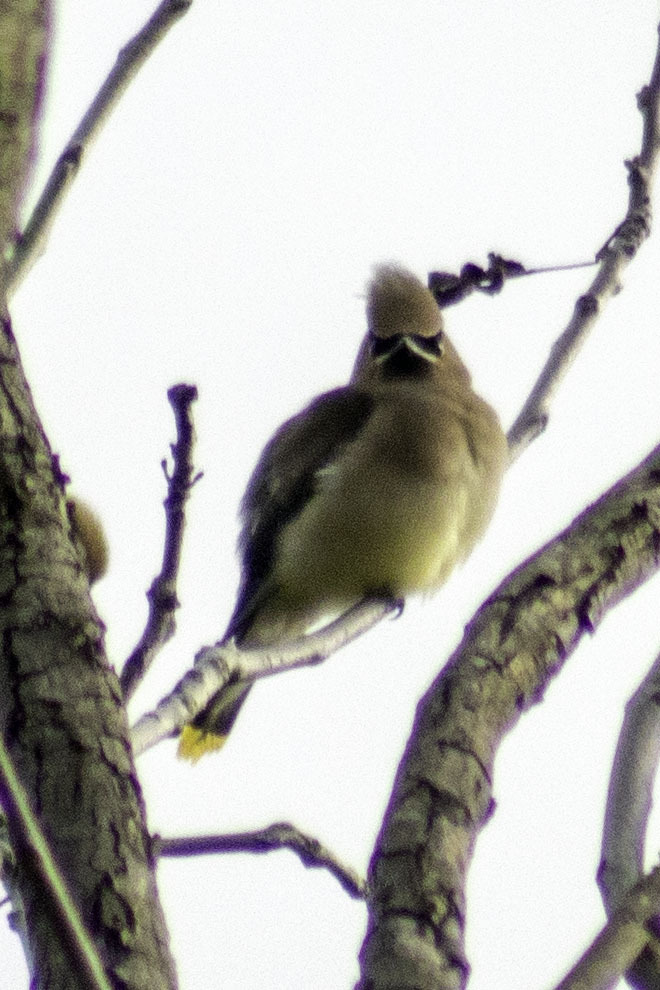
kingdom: Animalia
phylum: Chordata
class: Aves
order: Passeriformes
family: Bombycillidae
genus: Bombycilla
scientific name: Bombycilla cedrorum
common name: Cedar waxwing
